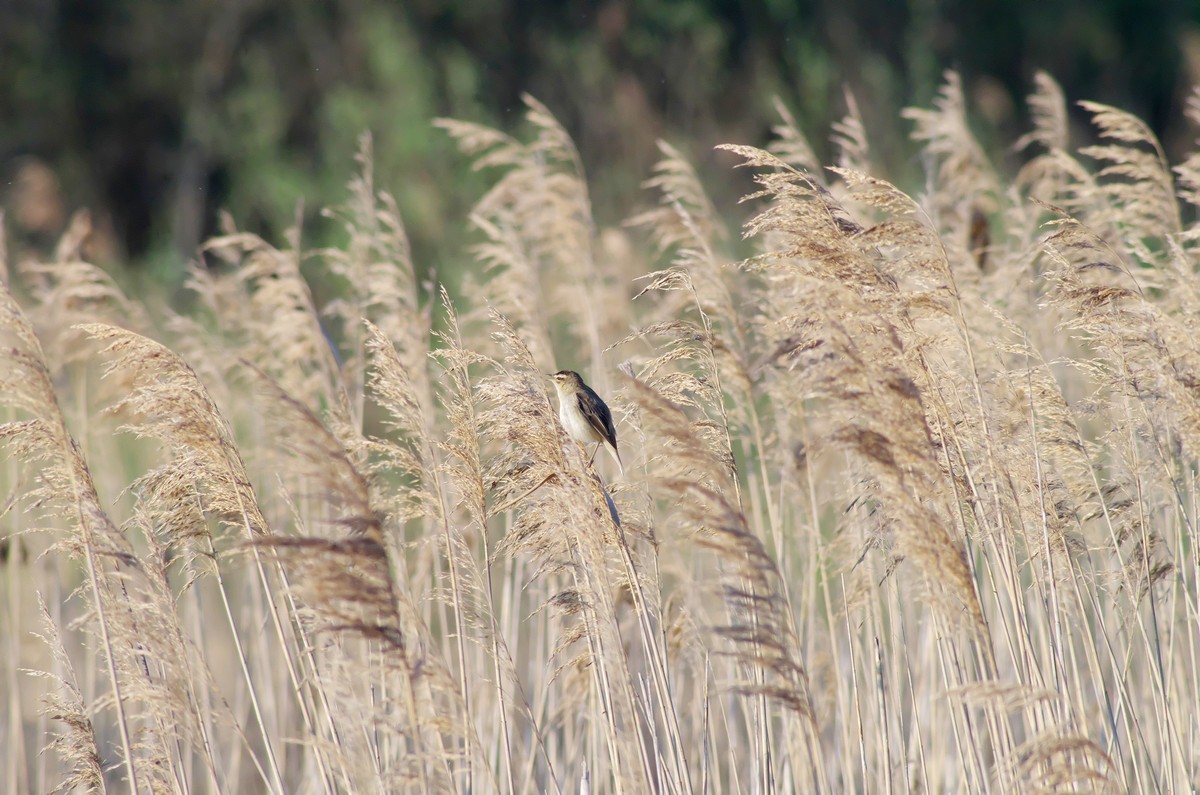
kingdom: Animalia
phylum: Chordata
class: Aves
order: Passeriformes
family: Acrocephalidae
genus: Acrocephalus
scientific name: Acrocephalus schoenobaenus
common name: Sedge warbler
